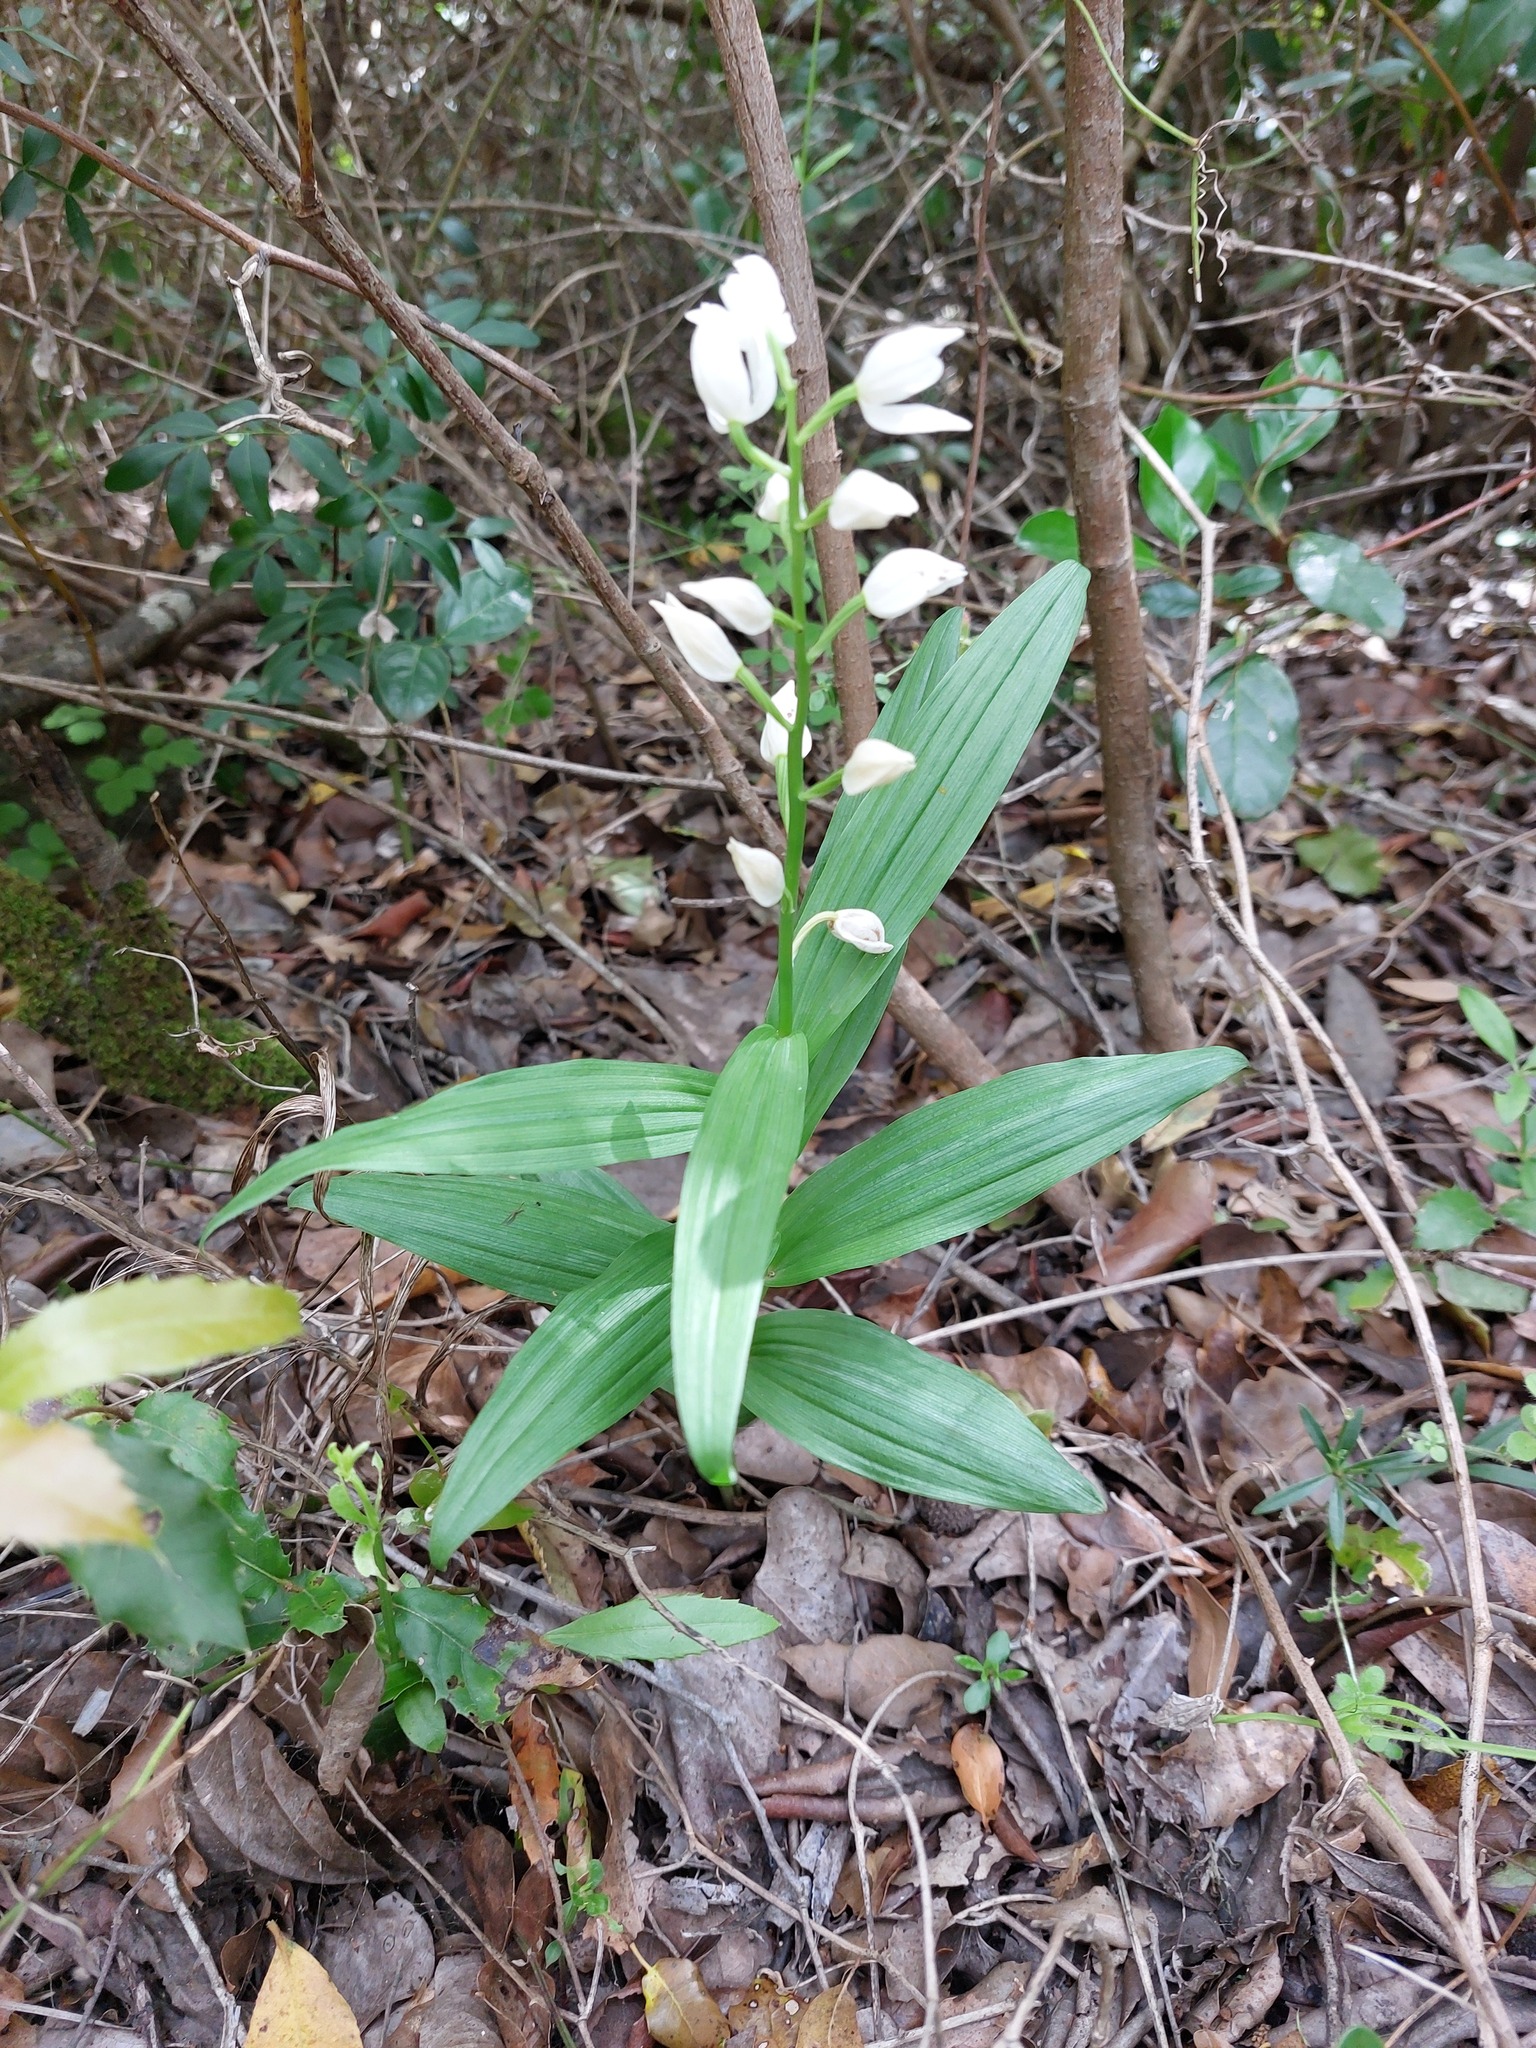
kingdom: Plantae
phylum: Tracheophyta
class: Liliopsida
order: Asparagales
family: Orchidaceae
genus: Cephalanthera
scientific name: Cephalanthera longifolia
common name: Narrow-leaved helleborine
